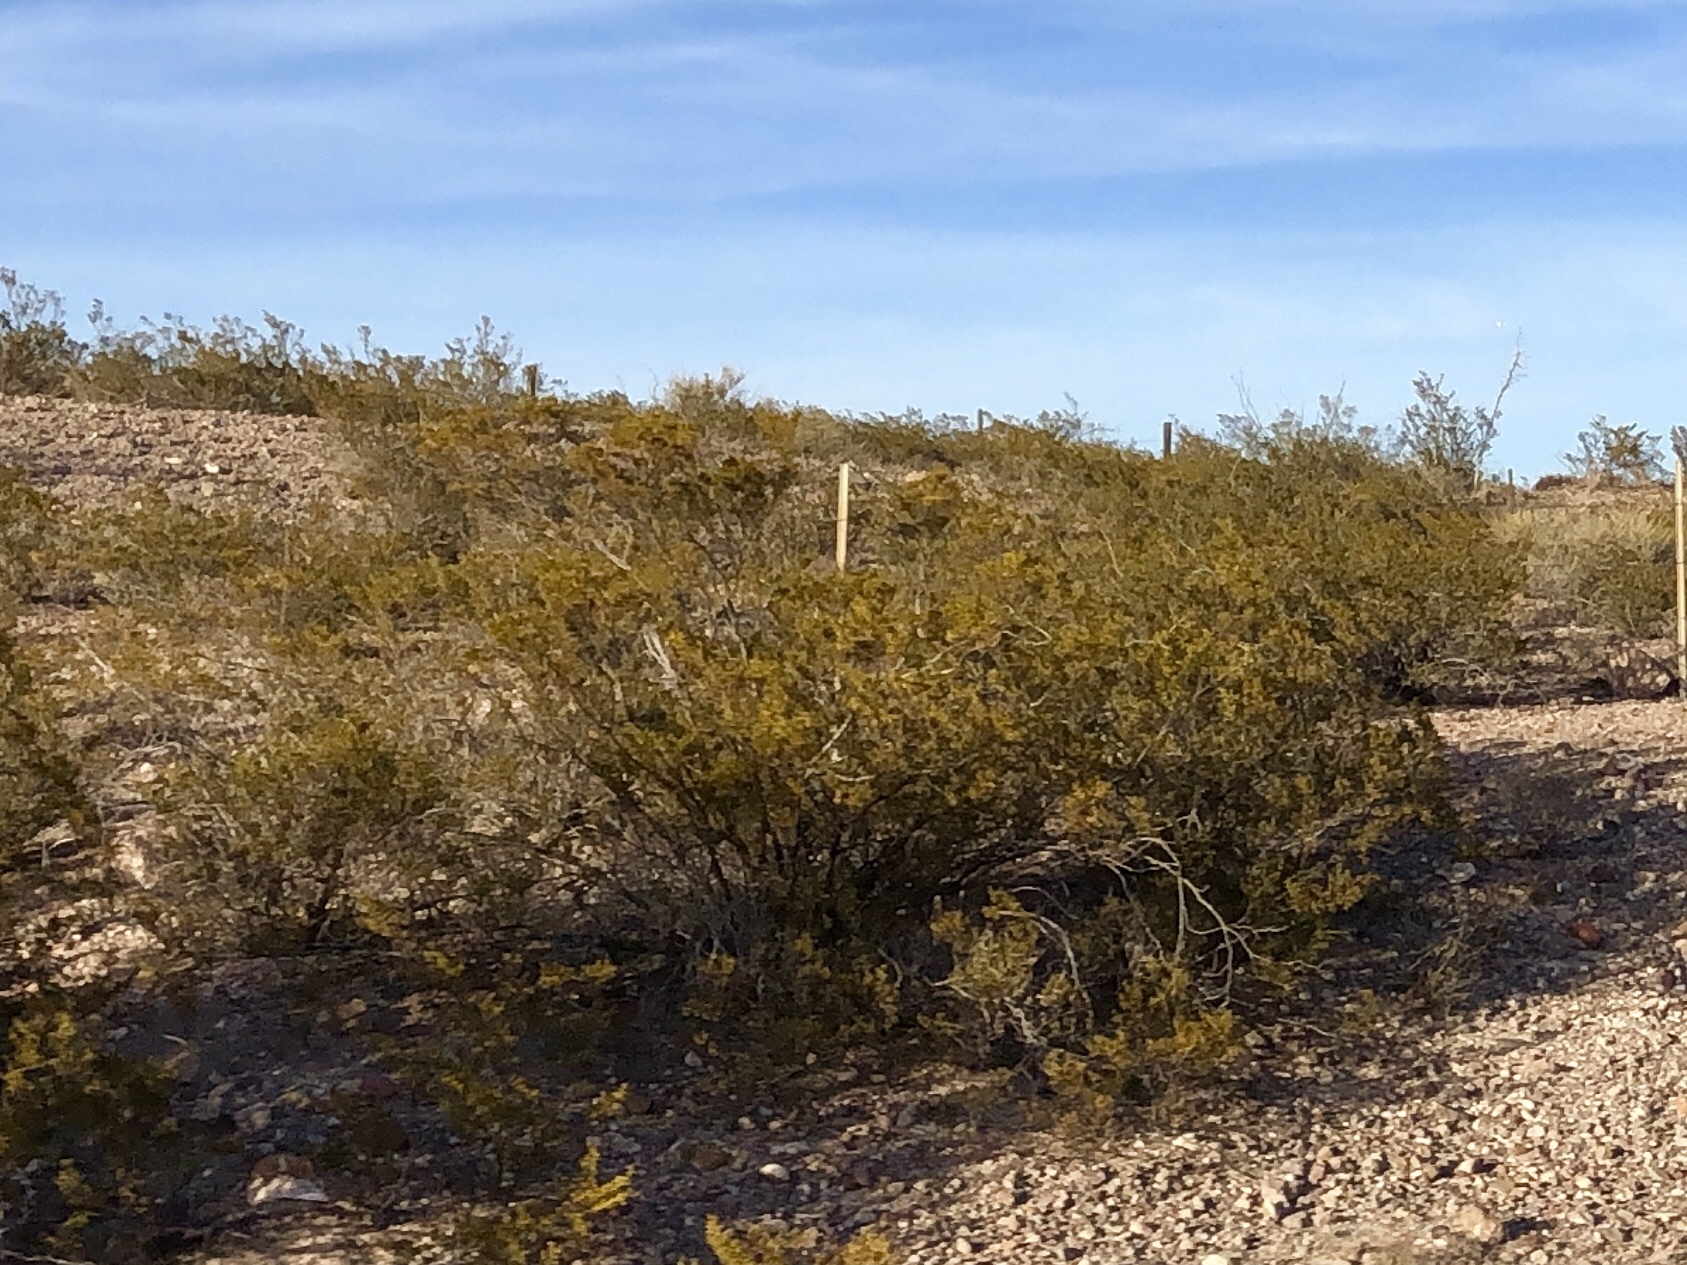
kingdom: Plantae
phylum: Tracheophyta
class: Magnoliopsida
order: Zygophyllales
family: Zygophyllaceae
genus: Larrea
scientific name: Larrea tridentata
